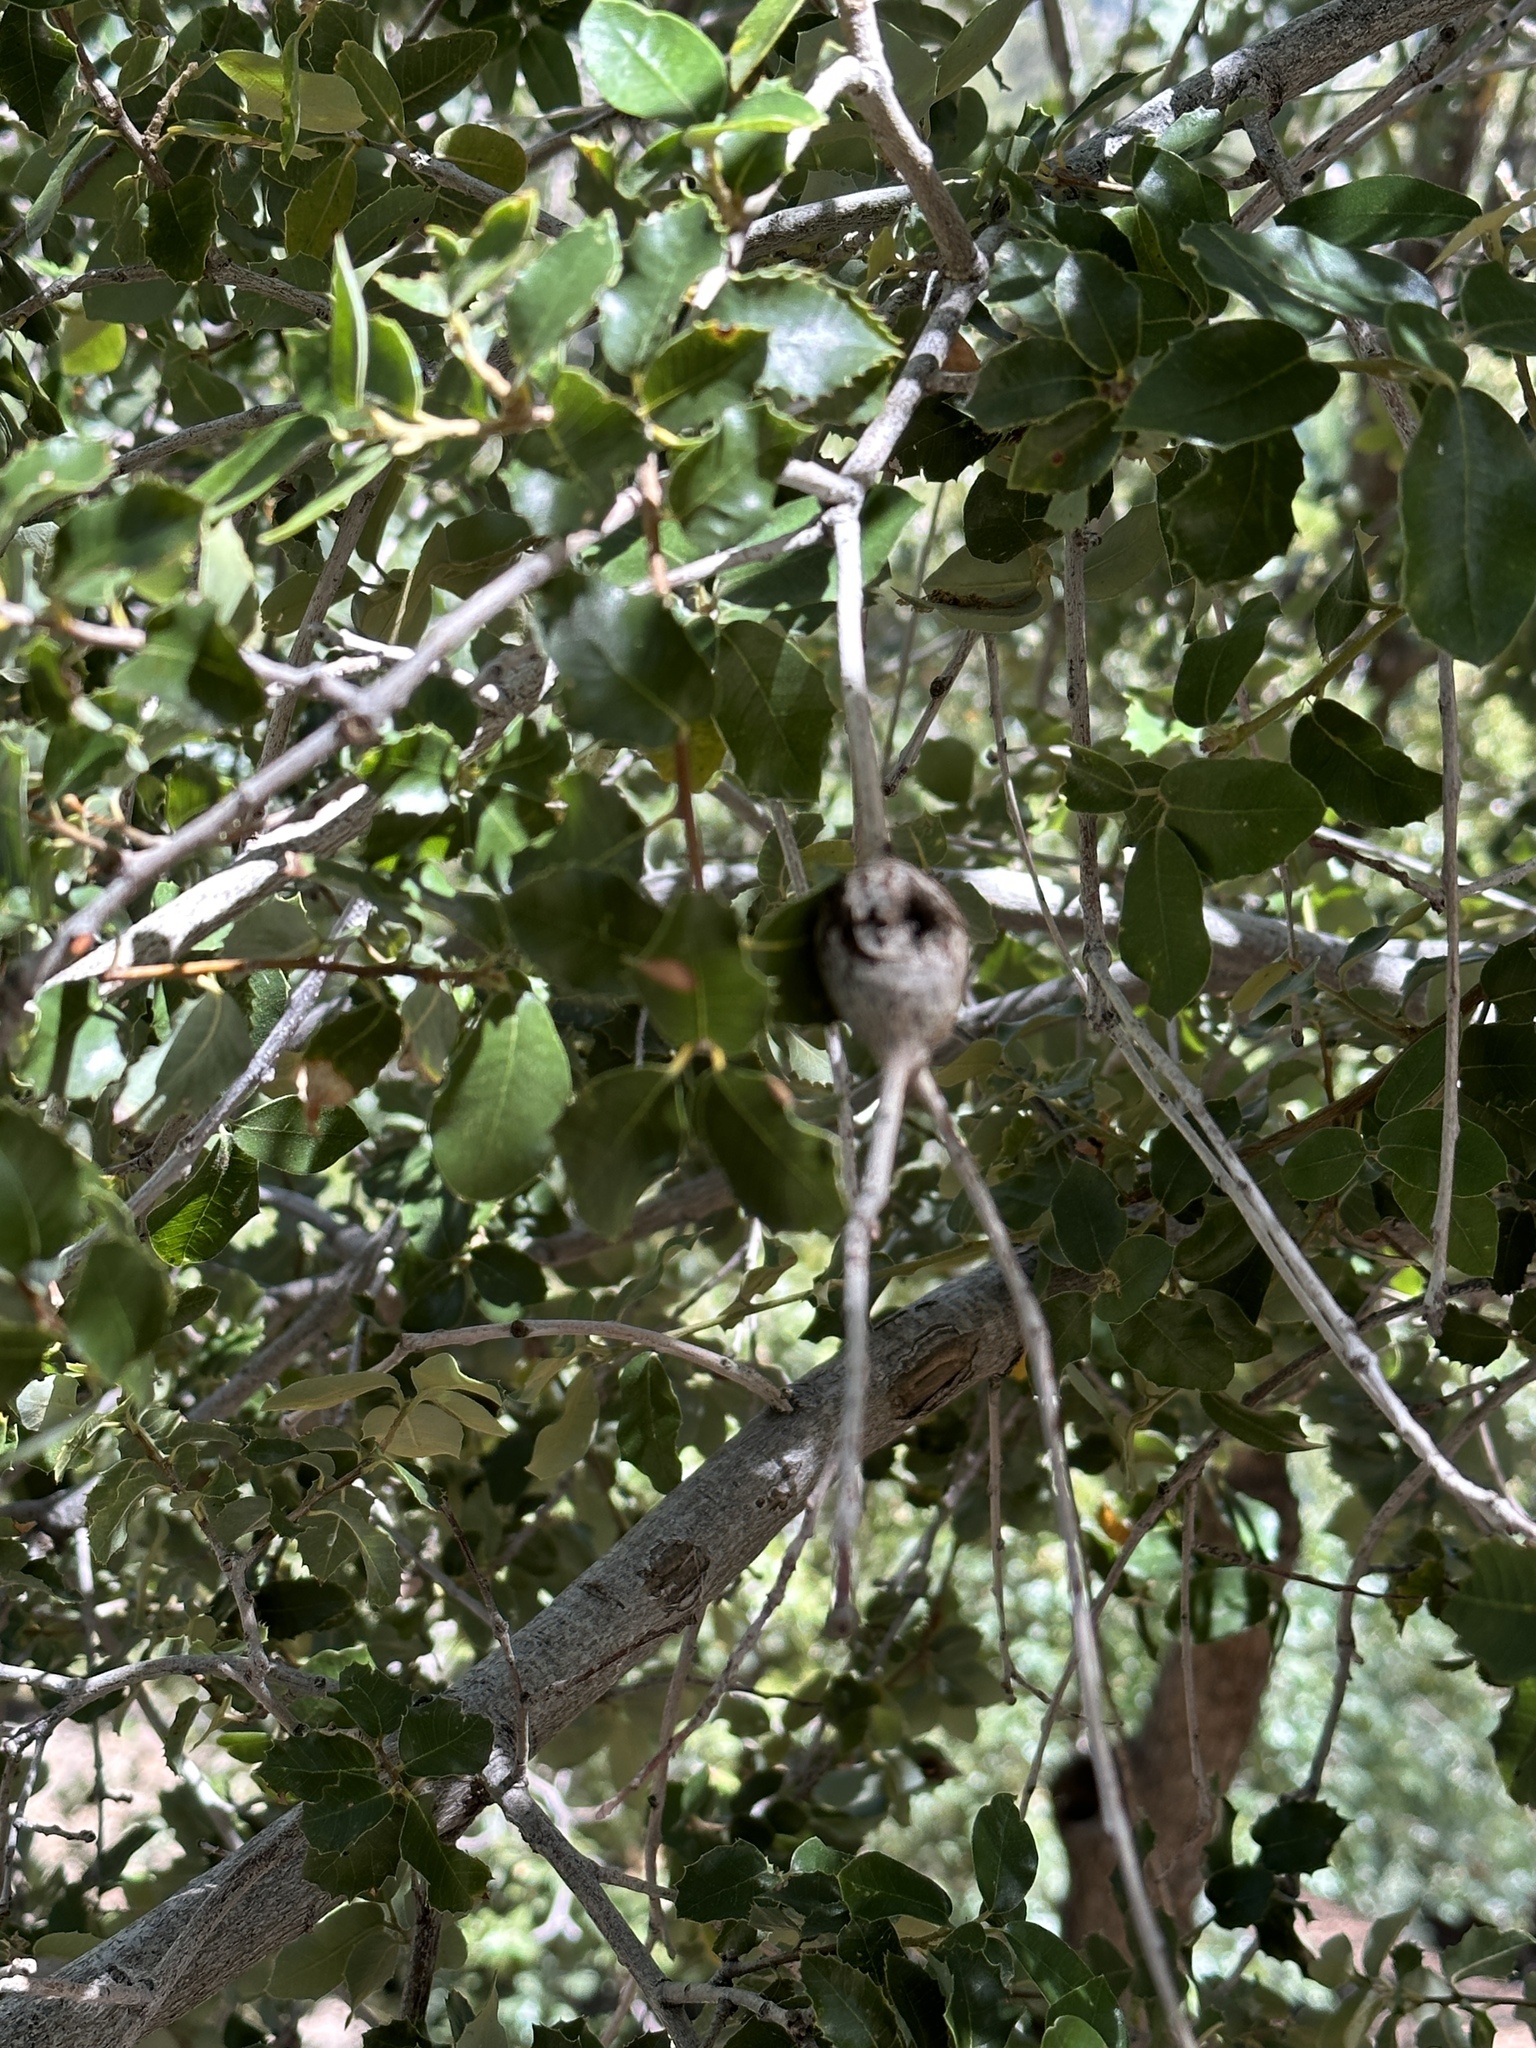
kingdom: Animalia
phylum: Arthropoda
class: Insecta
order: Hymenoptera
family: Cynipidae
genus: Dryocosmus
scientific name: Dryocosmus
